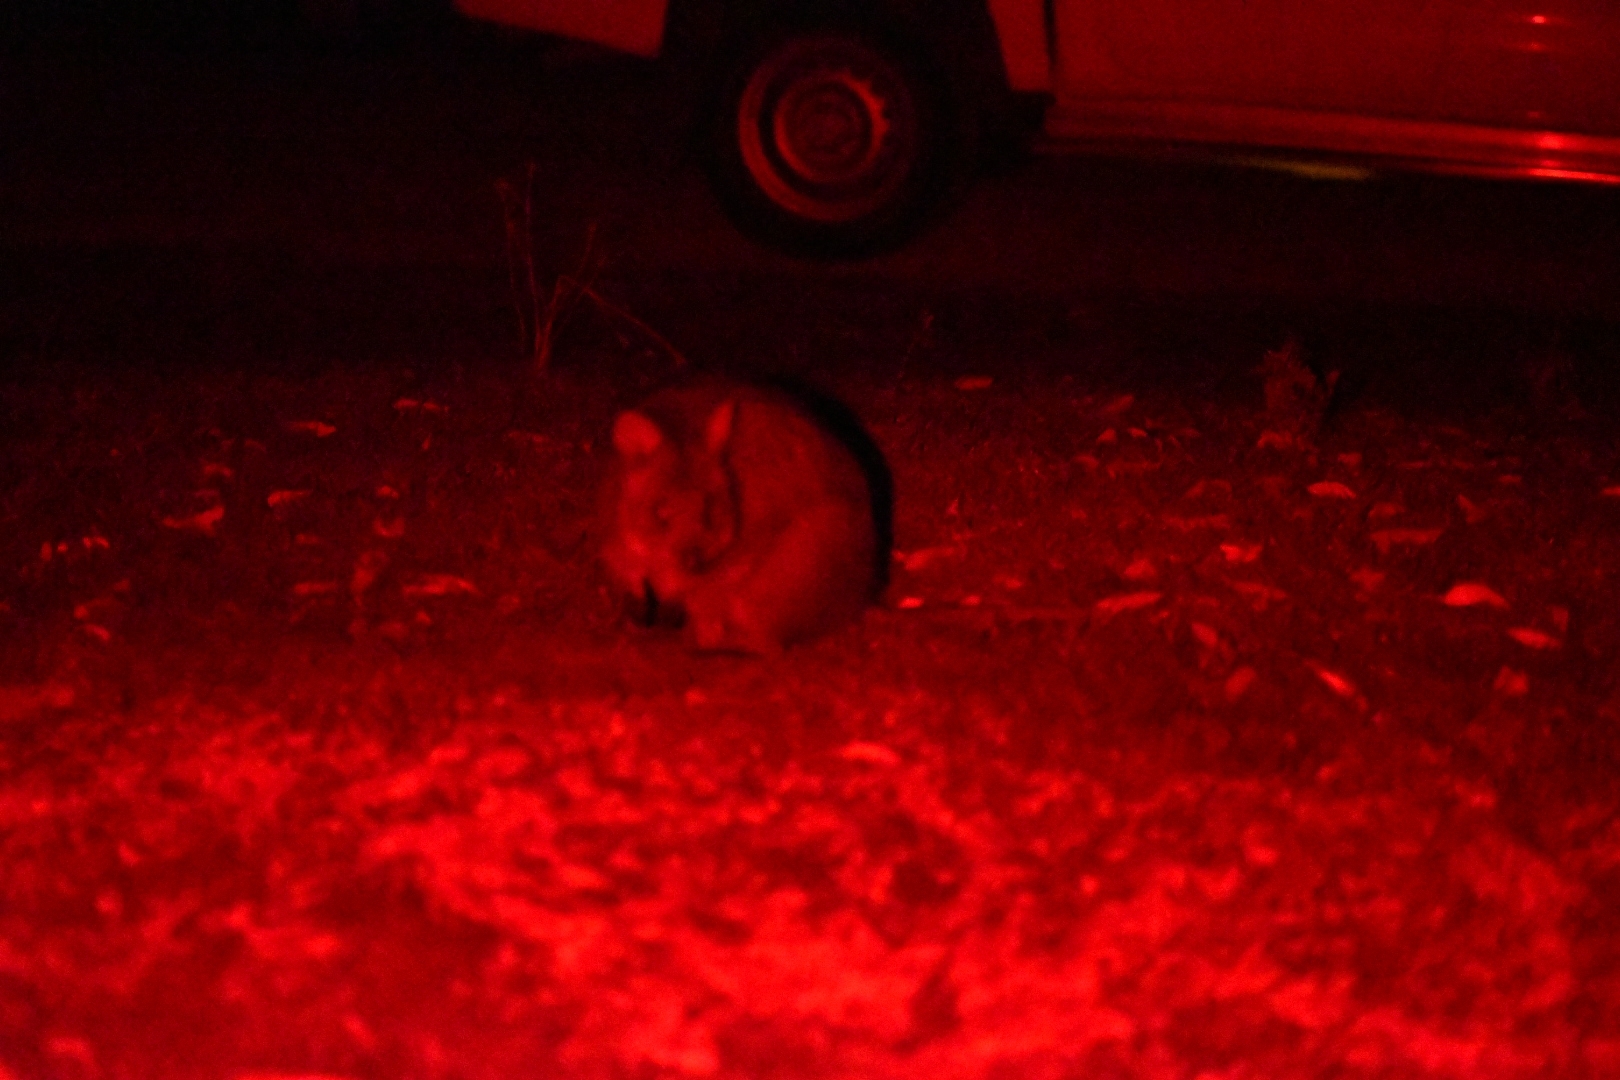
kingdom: Animalia
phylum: Chordata
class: Mammalia
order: Diprotodontia
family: Macropodidae
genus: Setonix
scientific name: Setonix brachyurus
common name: Quokka
